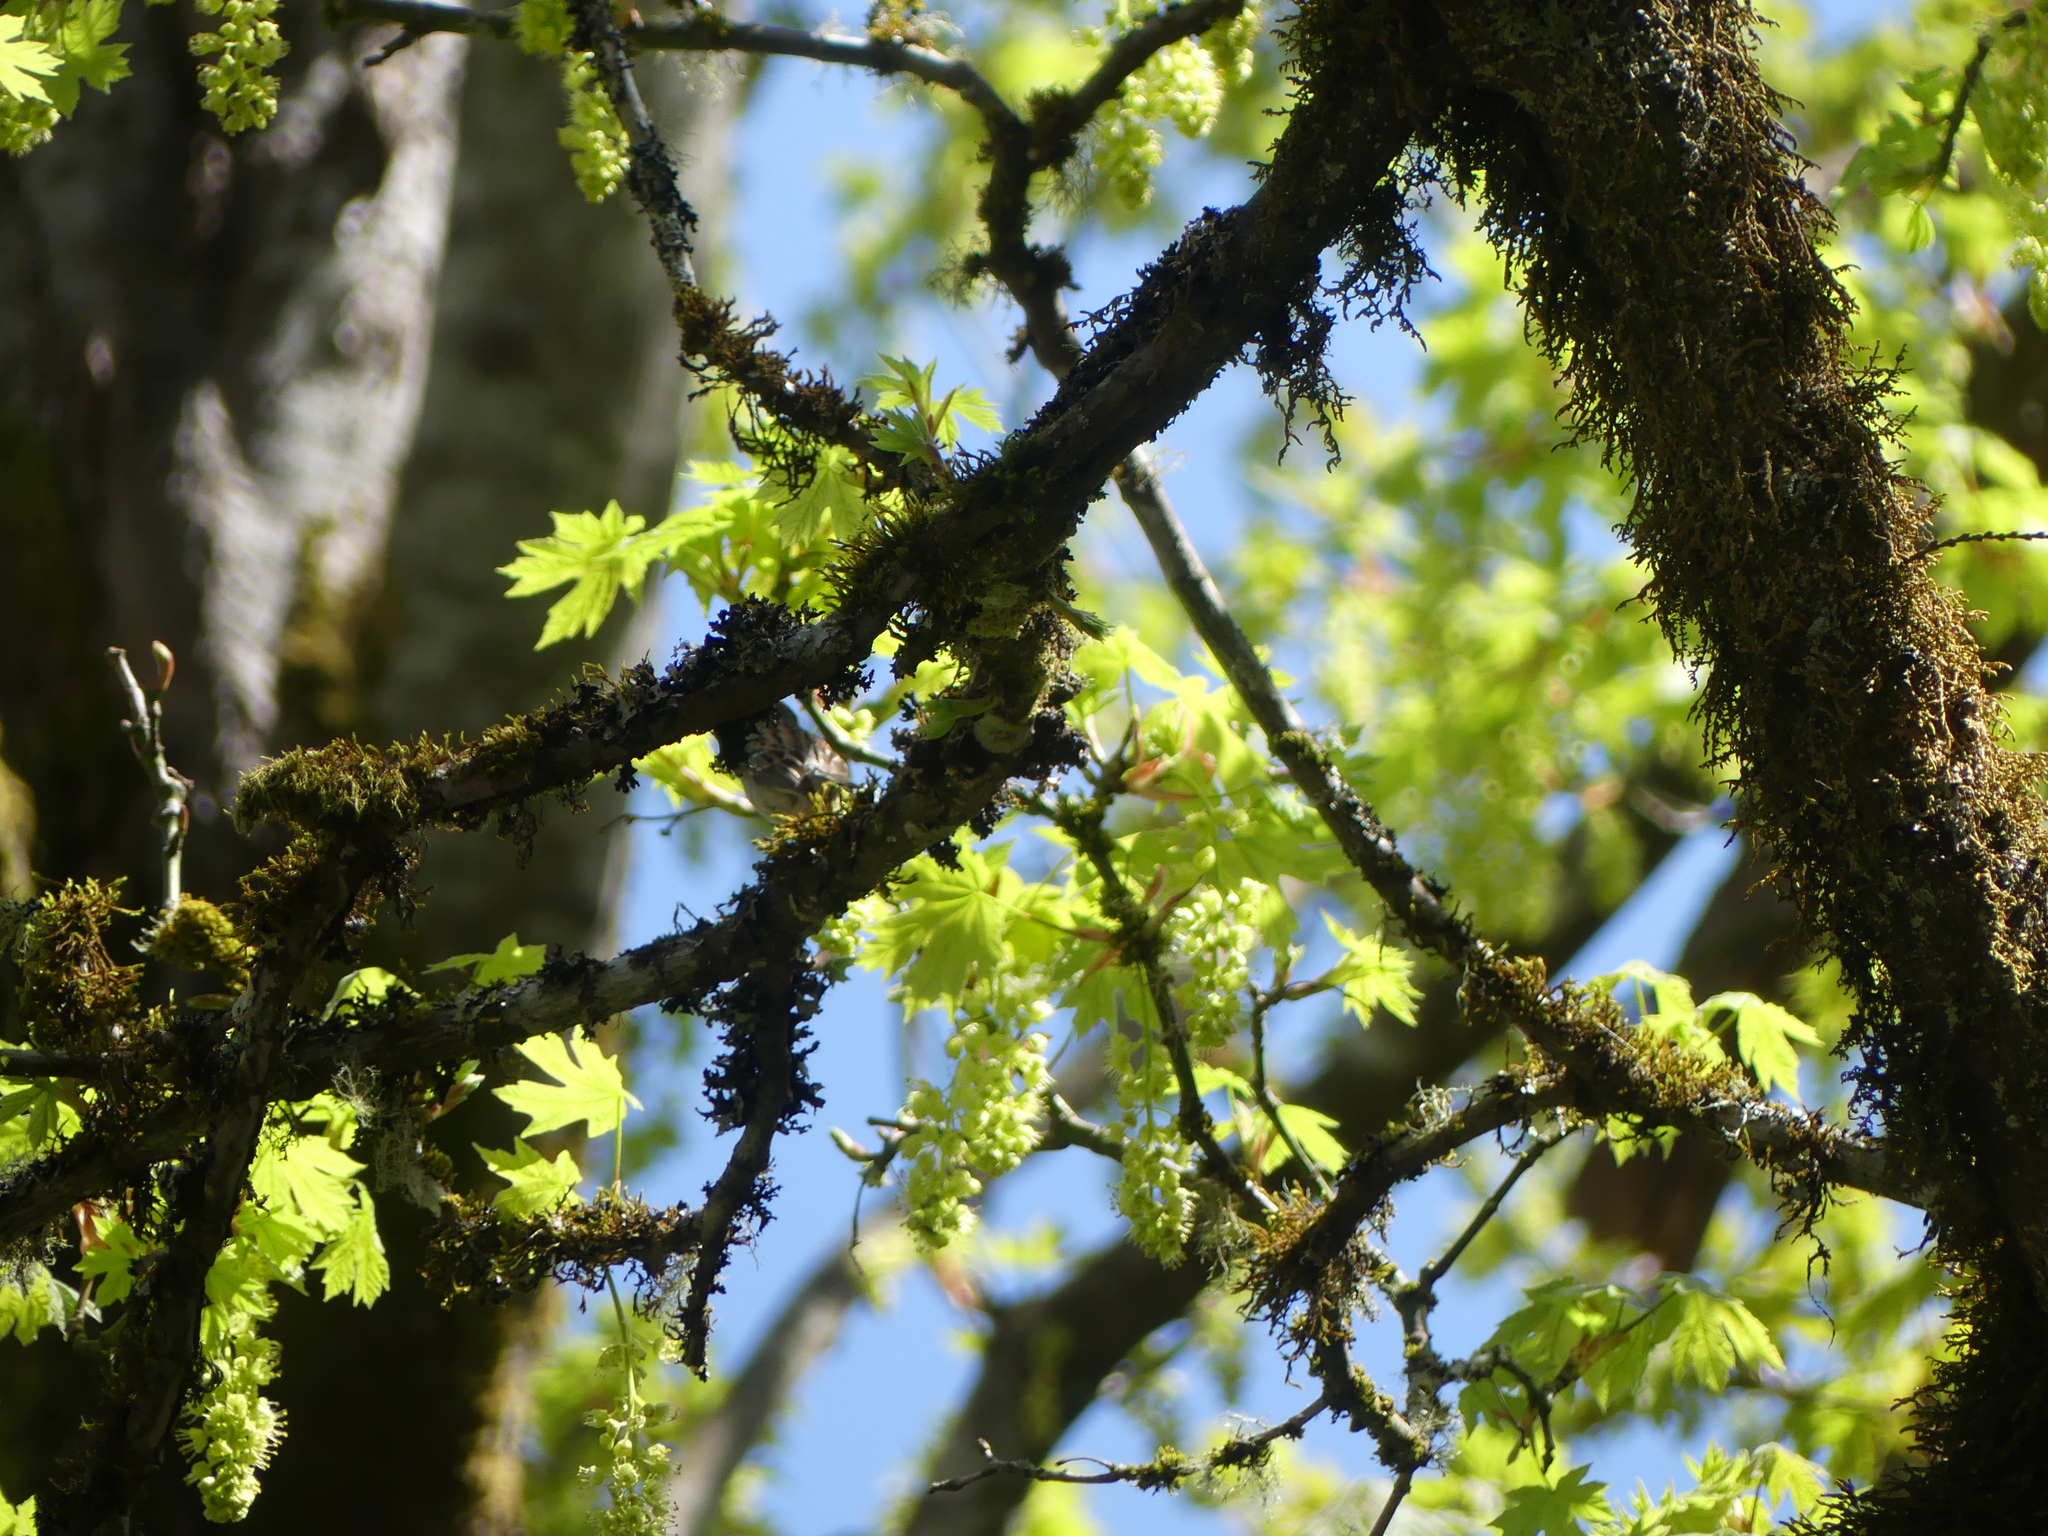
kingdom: Plantae
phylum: Tracheophyta
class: Magnoliopsida
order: Sapindales
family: Sapindaceae
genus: Acer
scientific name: Acer macrophyllum
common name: Oregon maple
